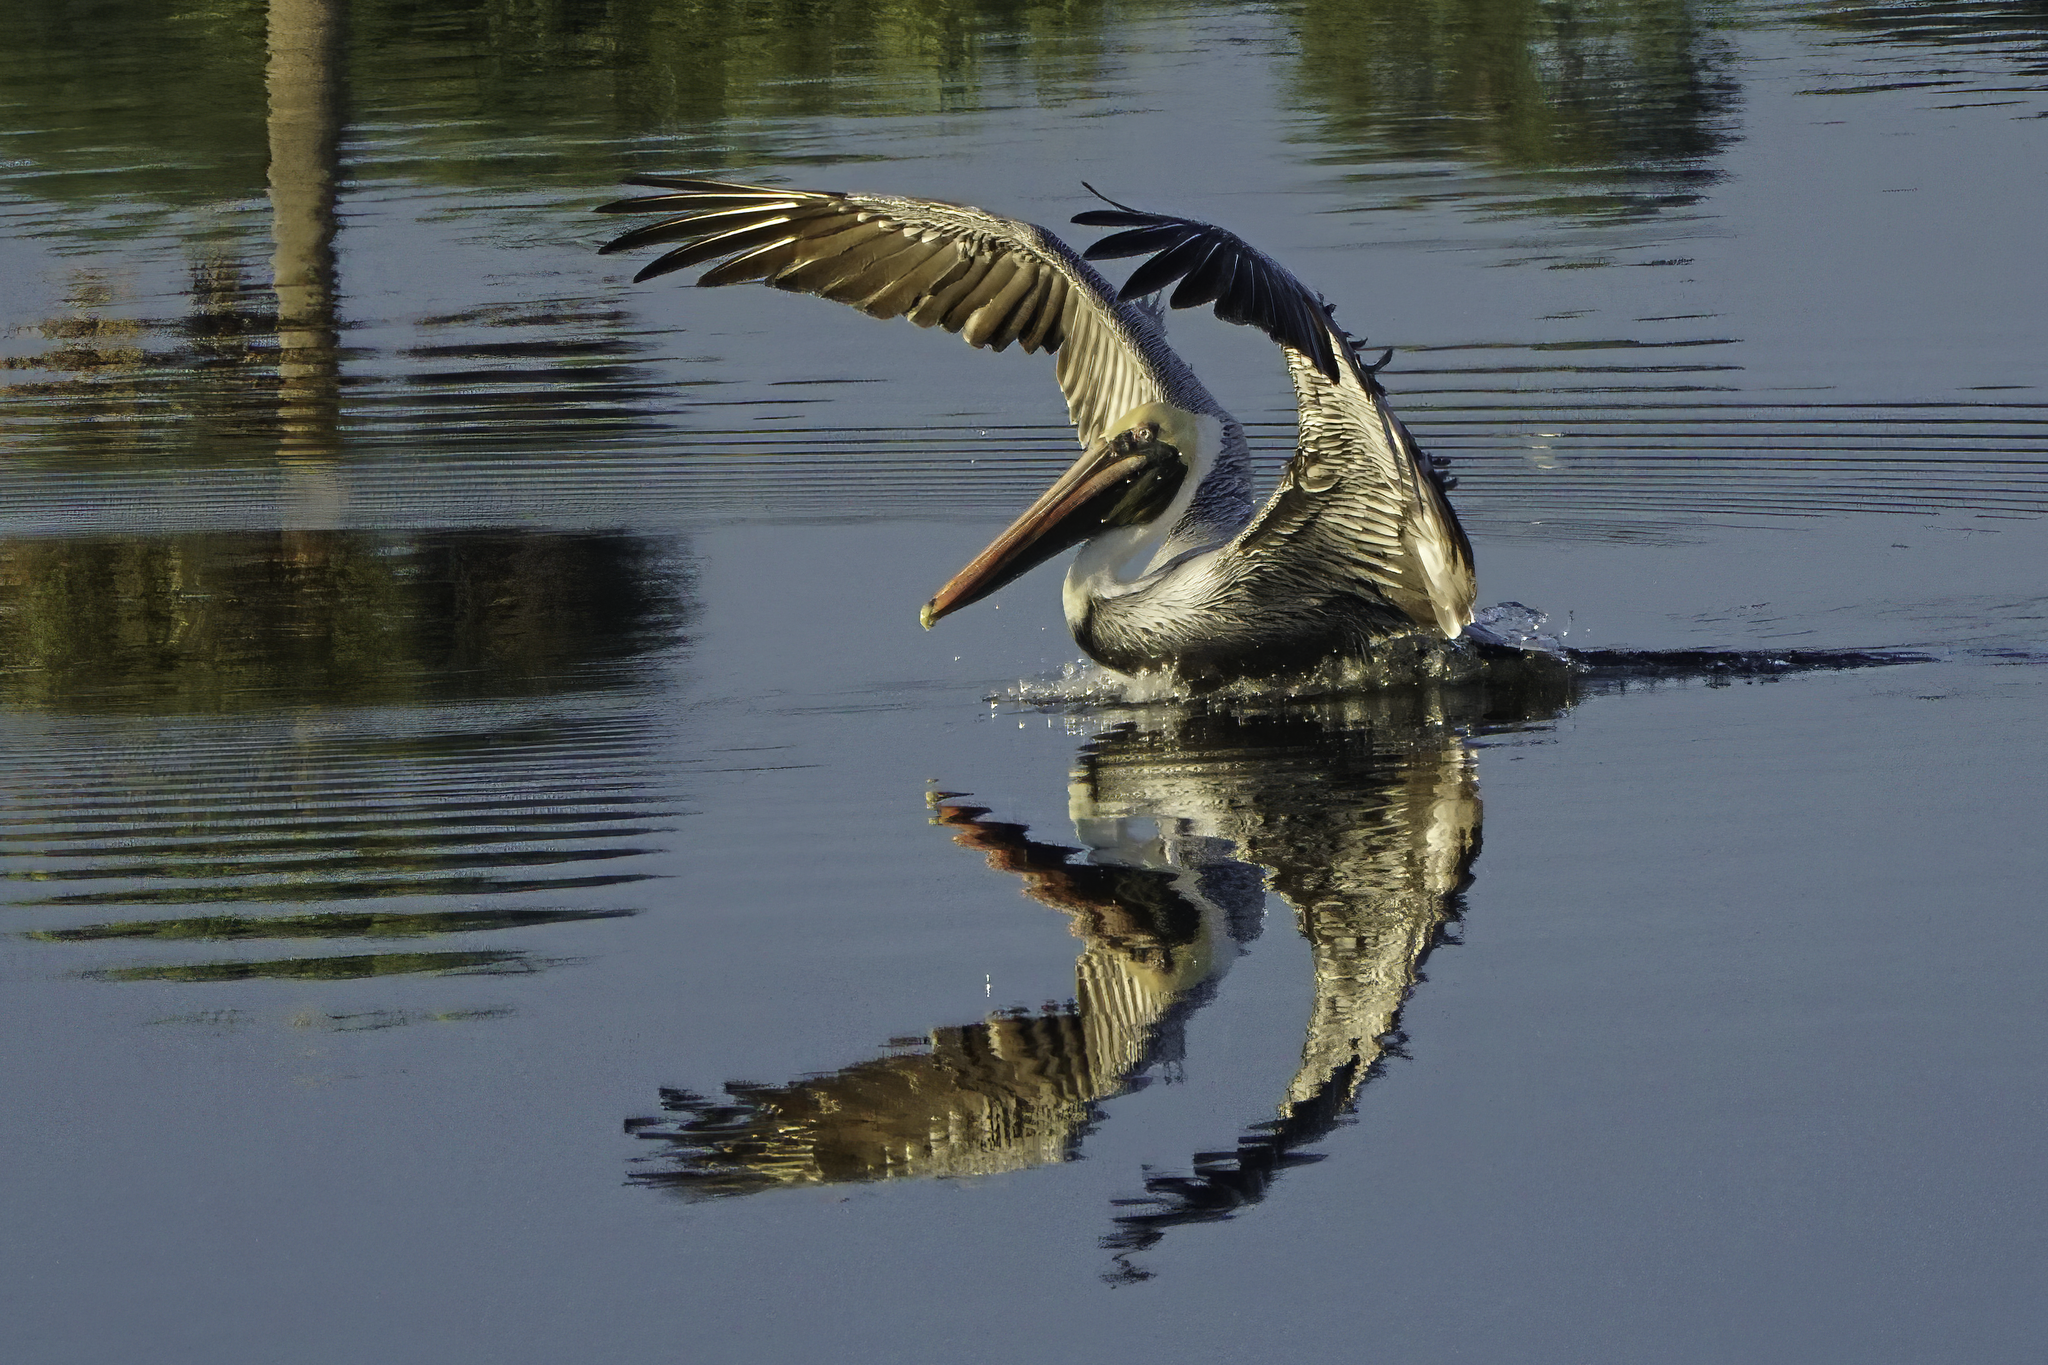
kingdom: Animalia
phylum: Chordata
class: Aves
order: Pelecaniformes
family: Pelecanidae
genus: Pelecanus
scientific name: Pelecanus occidentalis
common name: Brown pelican
